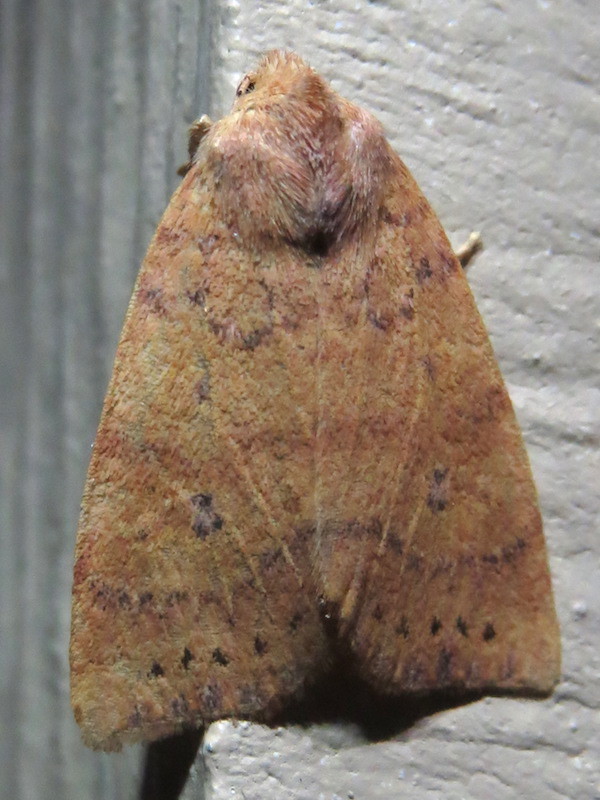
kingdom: Animalia
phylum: Arthropoda
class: Insecta
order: Lepidoptera
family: Noctuidae
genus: Anathix
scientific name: Anathix ralla
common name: Dotted sallow
